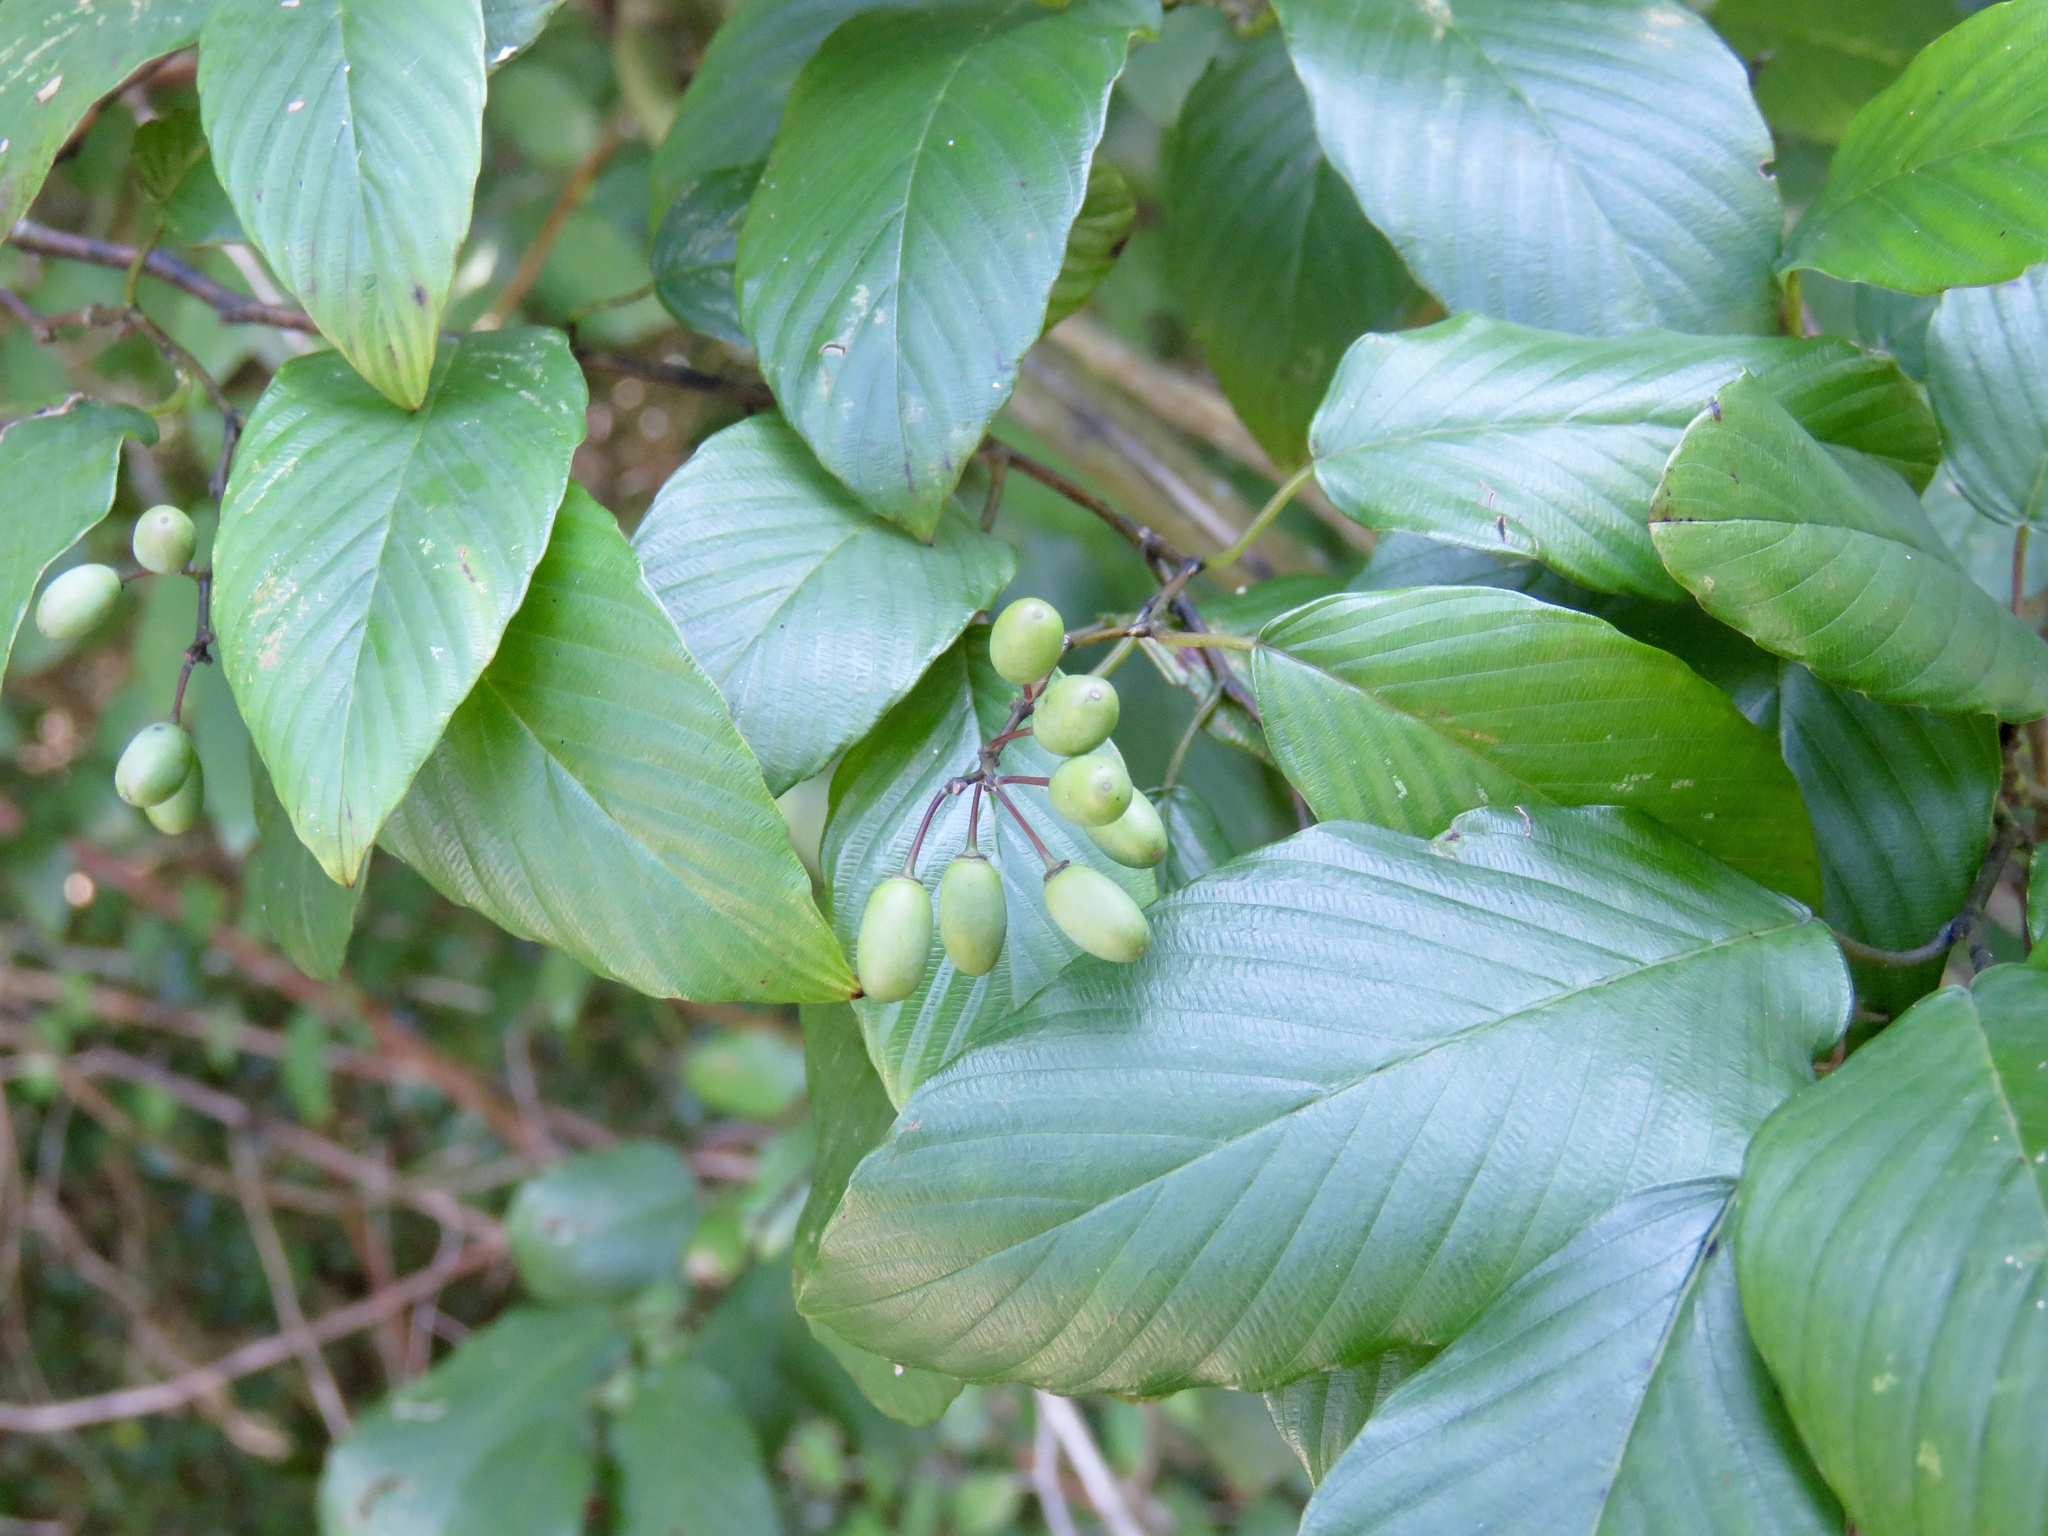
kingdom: Plantae
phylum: Tracheophyta
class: Magnoliopsida
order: Rosales
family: Rhamnaceae
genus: Berchemia
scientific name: Berchemia scandens
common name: Supplejack
